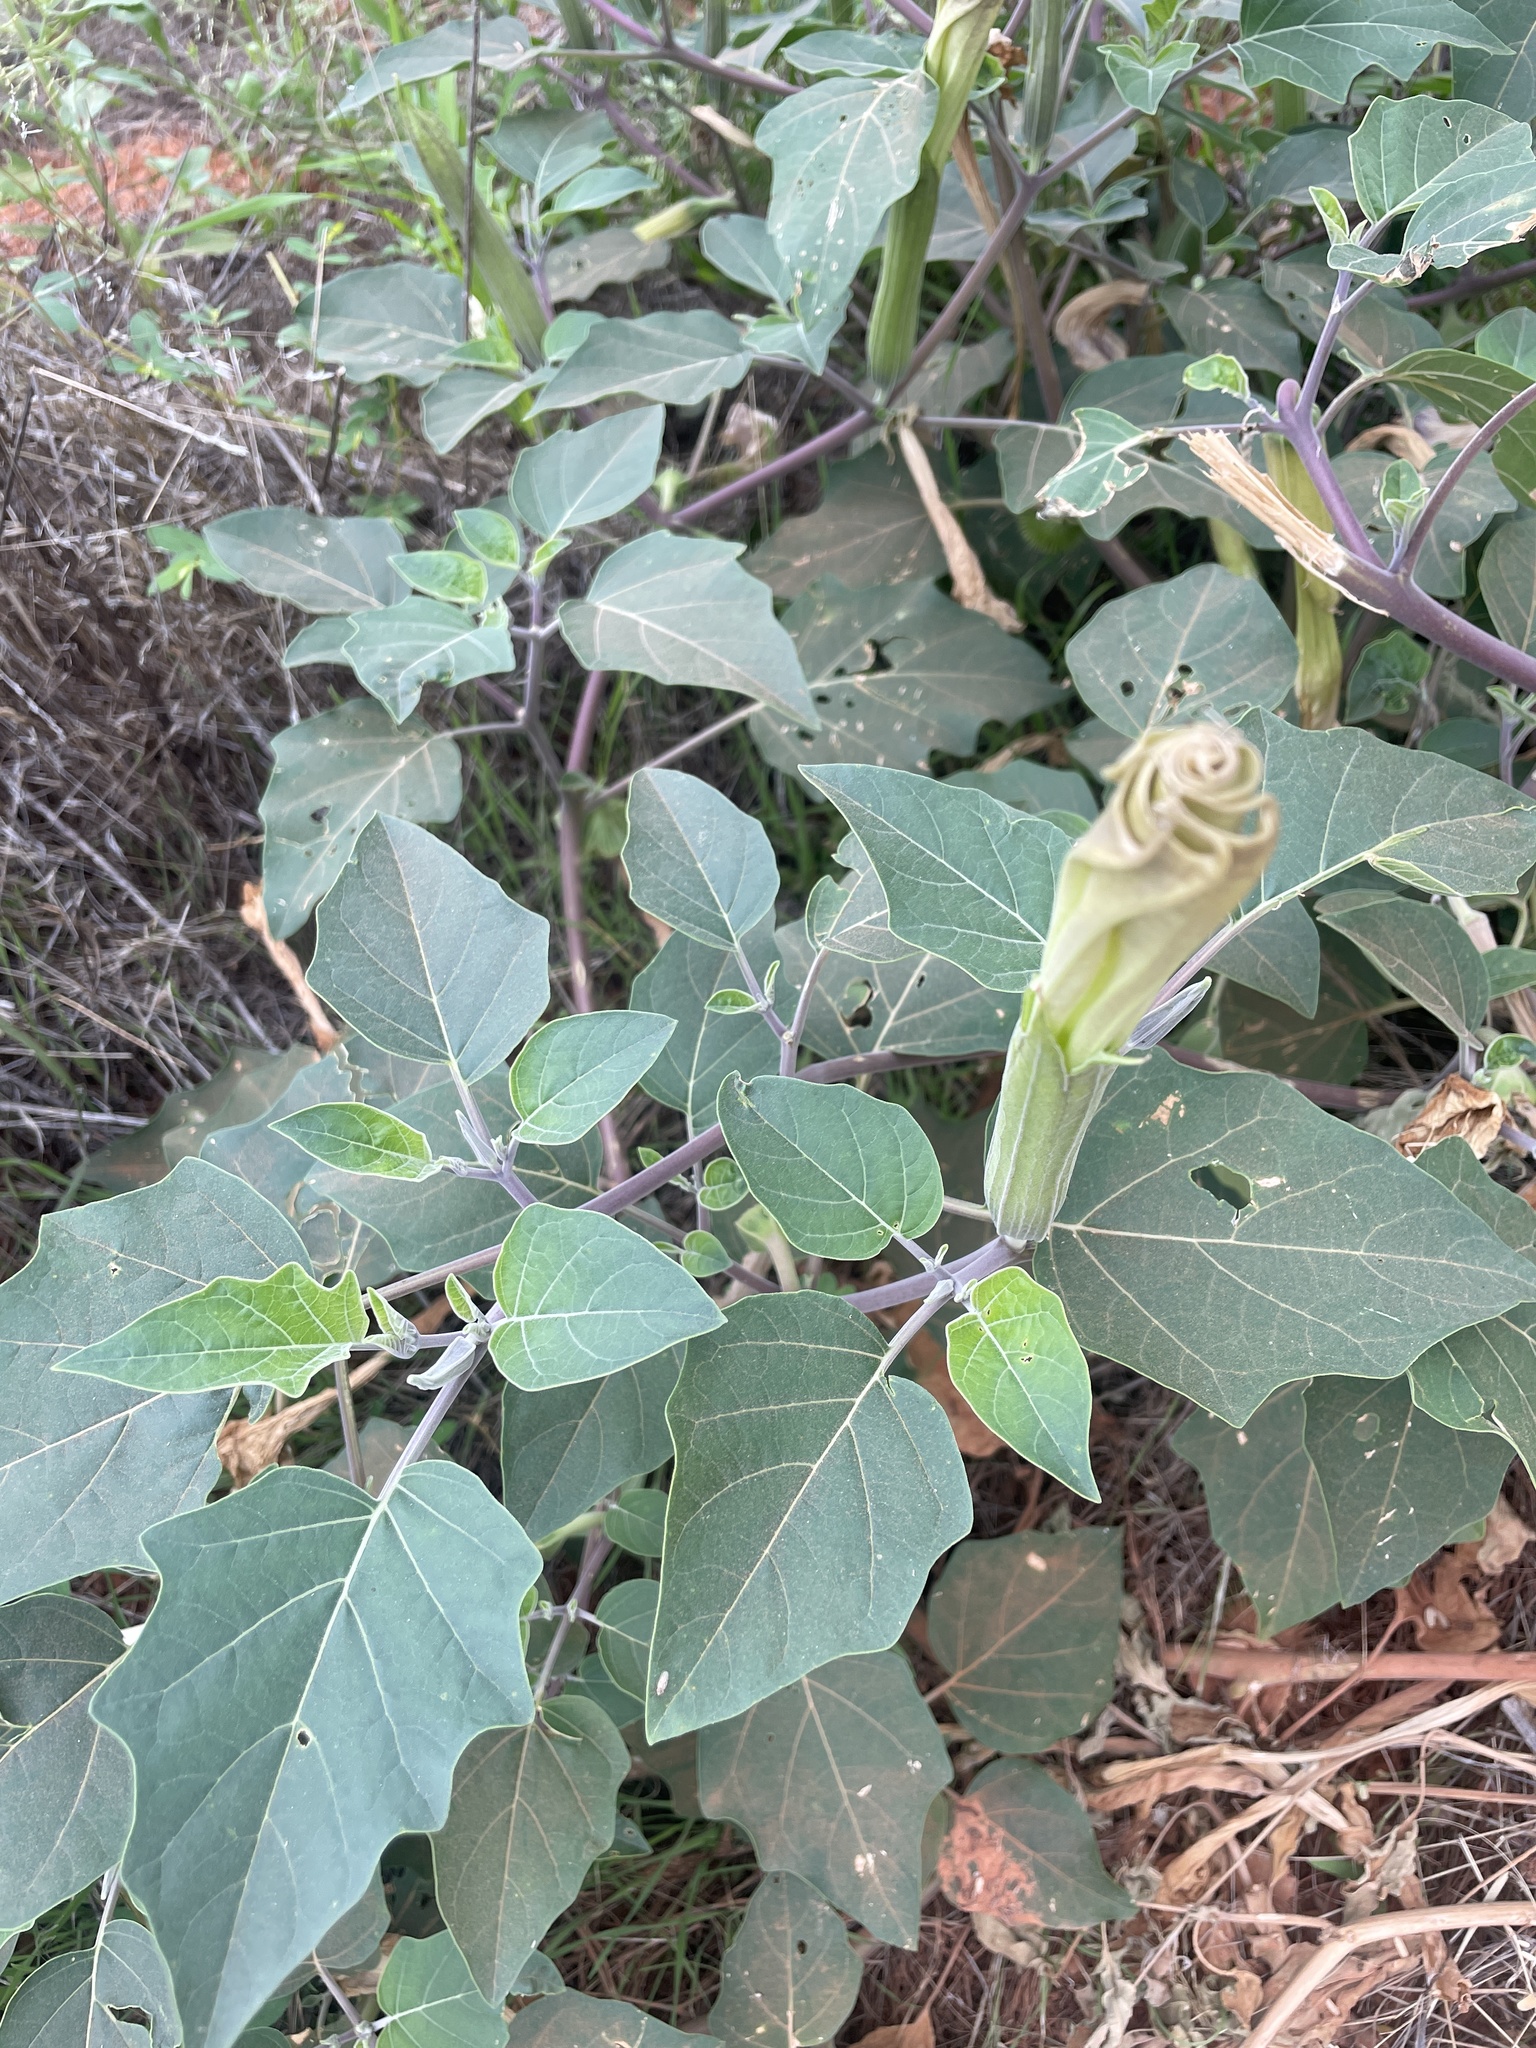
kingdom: Plantae
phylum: Tracheophyta
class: Magnoliopsida
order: Solanales
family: Solanaceae
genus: Datura
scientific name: Datura wrightii
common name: Sacred thorn-apple
